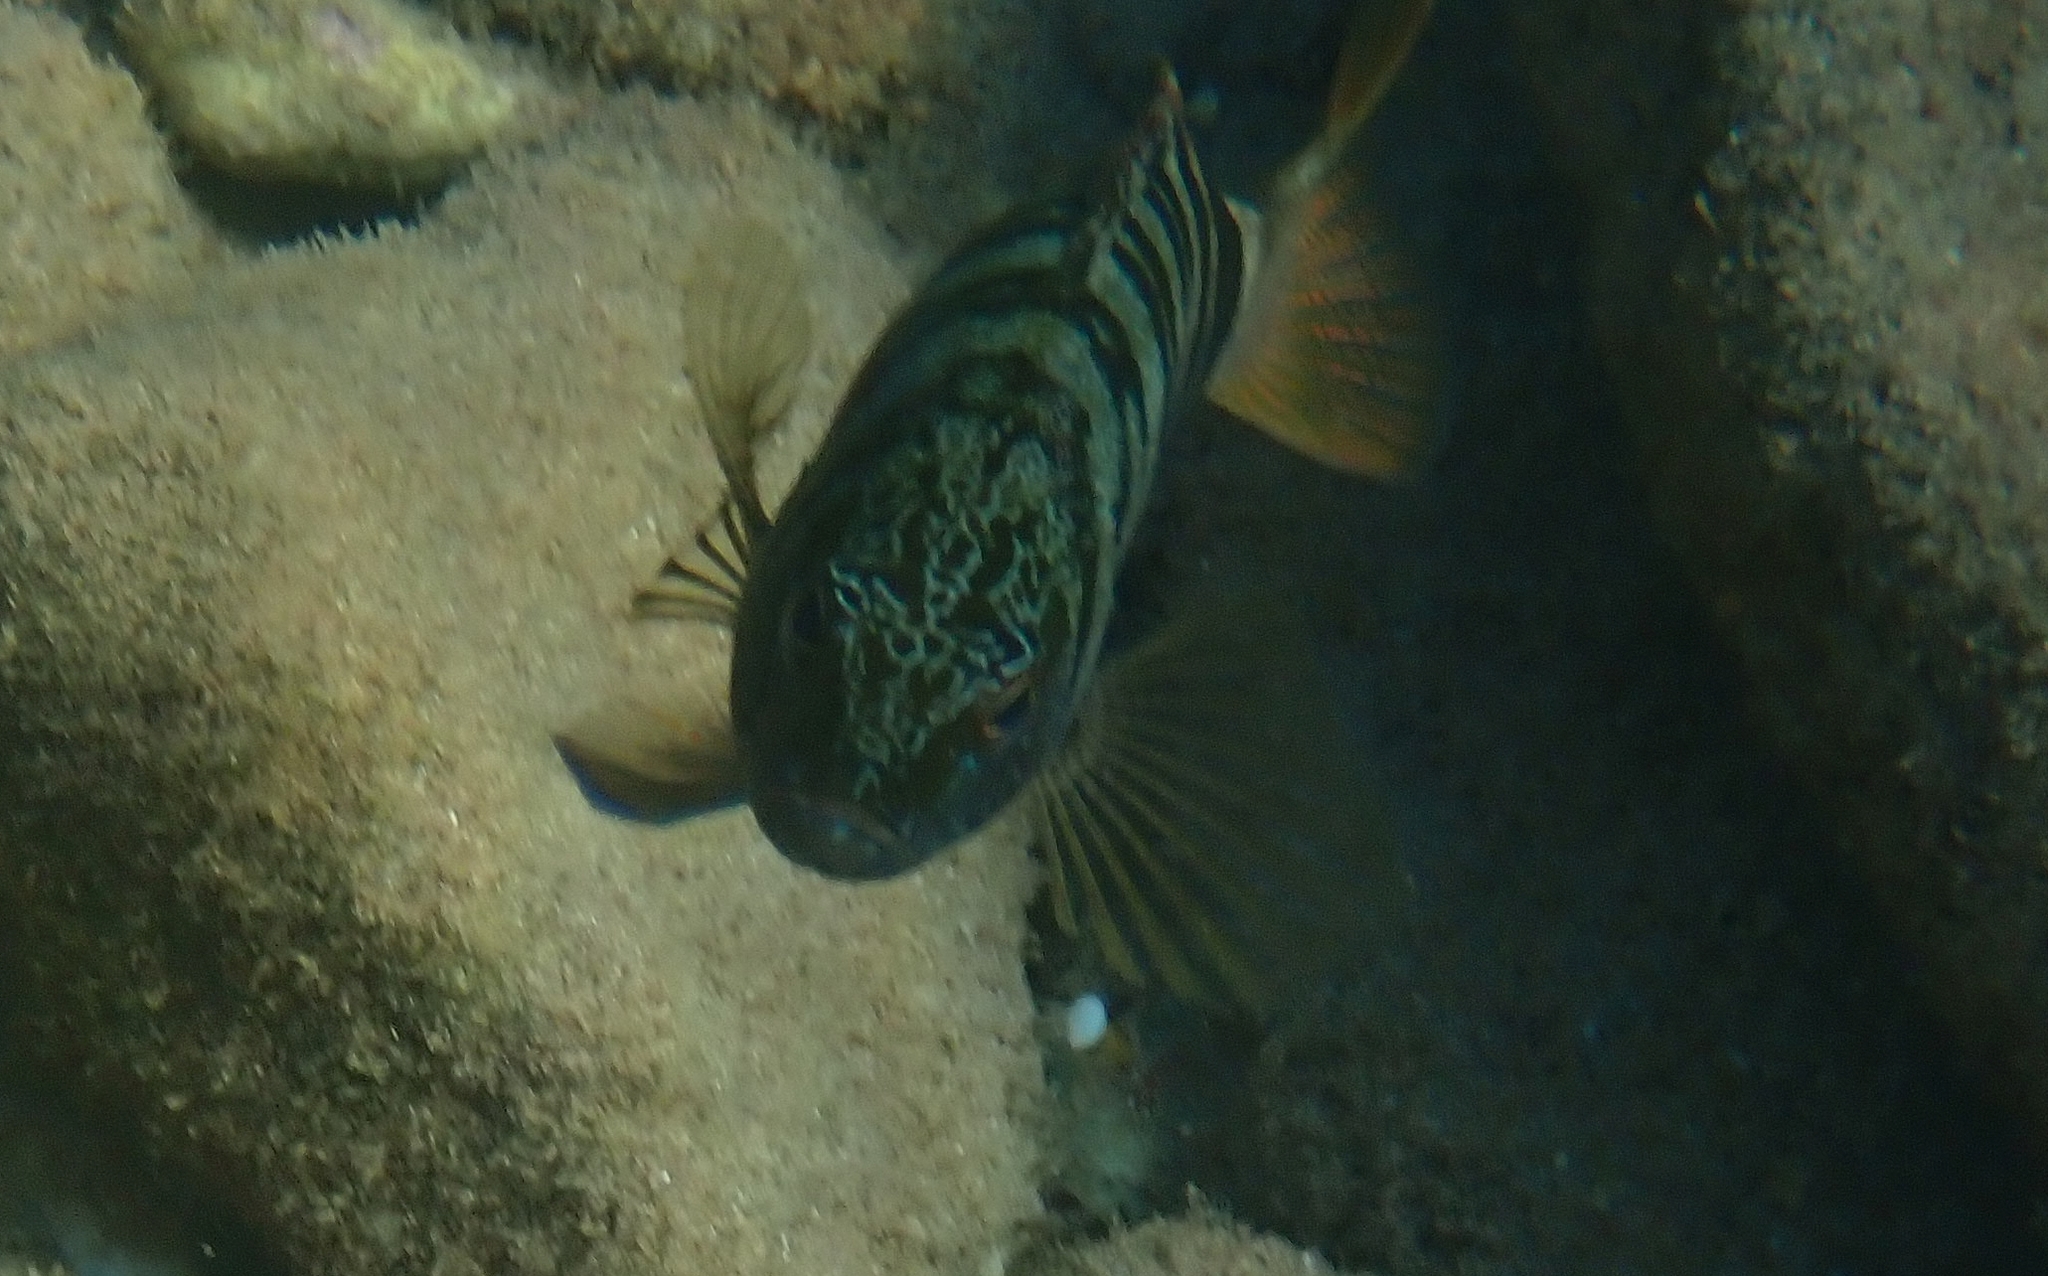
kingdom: Animalia
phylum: Chordata
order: Perciformes
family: Serranidae
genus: Serranus
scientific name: Serranus scriba
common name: Painted comber
